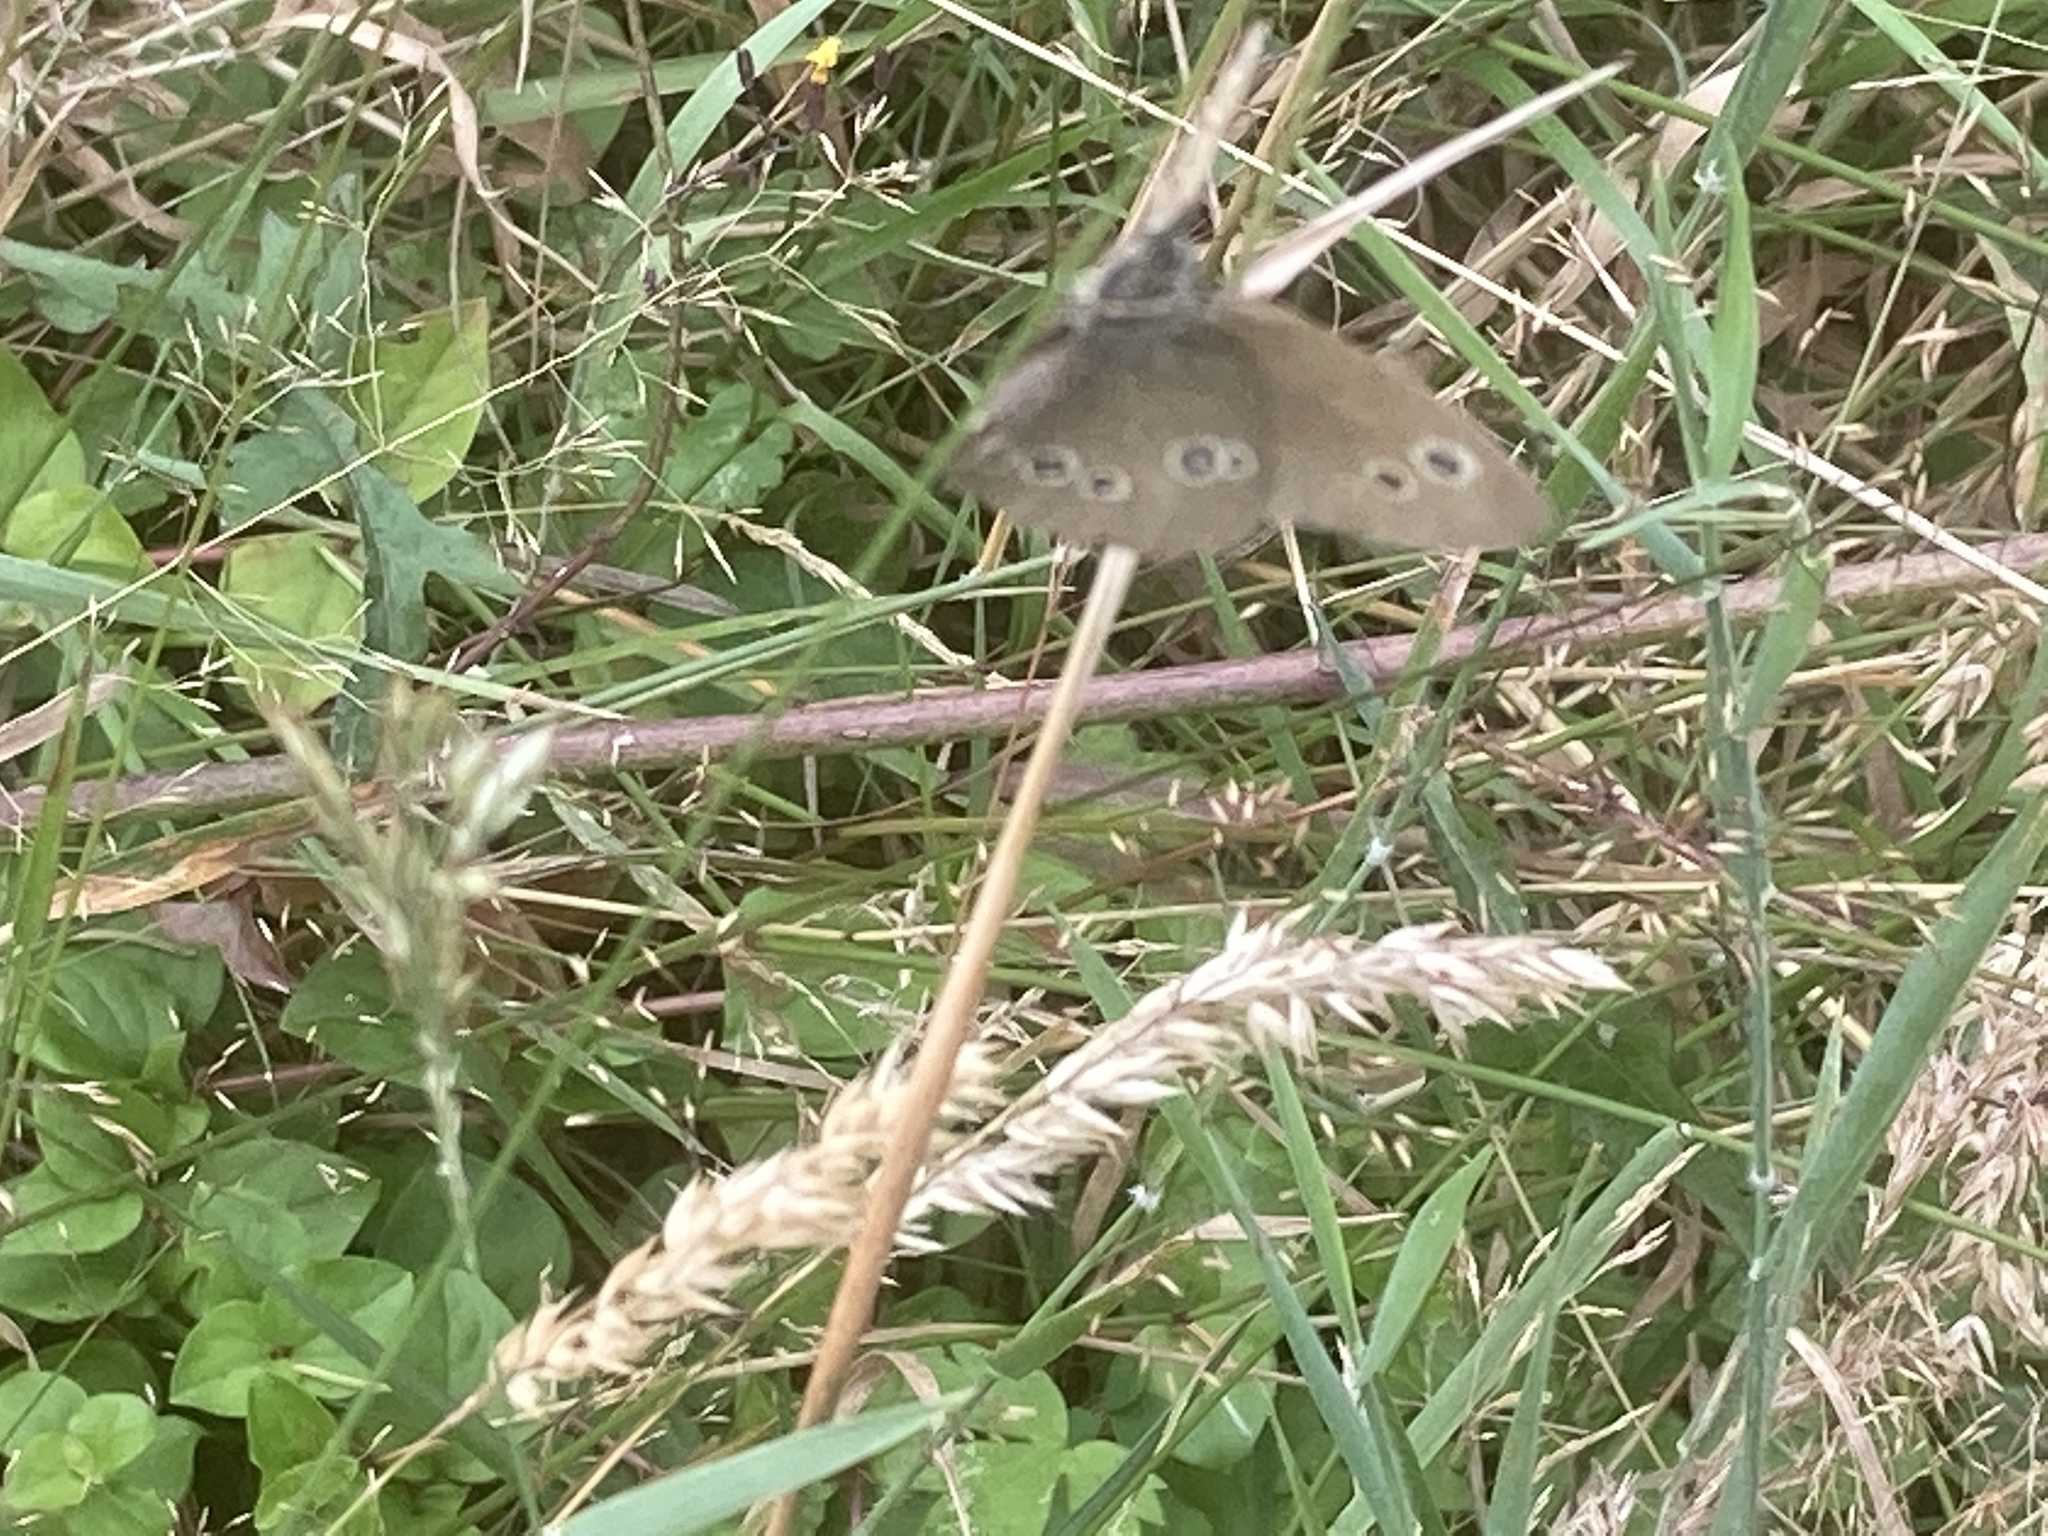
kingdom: Animalia
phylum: Arthropoda
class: Insecta
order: Lepidoptera
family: Nymphalidae
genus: Aphantopus
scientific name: Aphantopus hyperantus
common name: Ringlet
